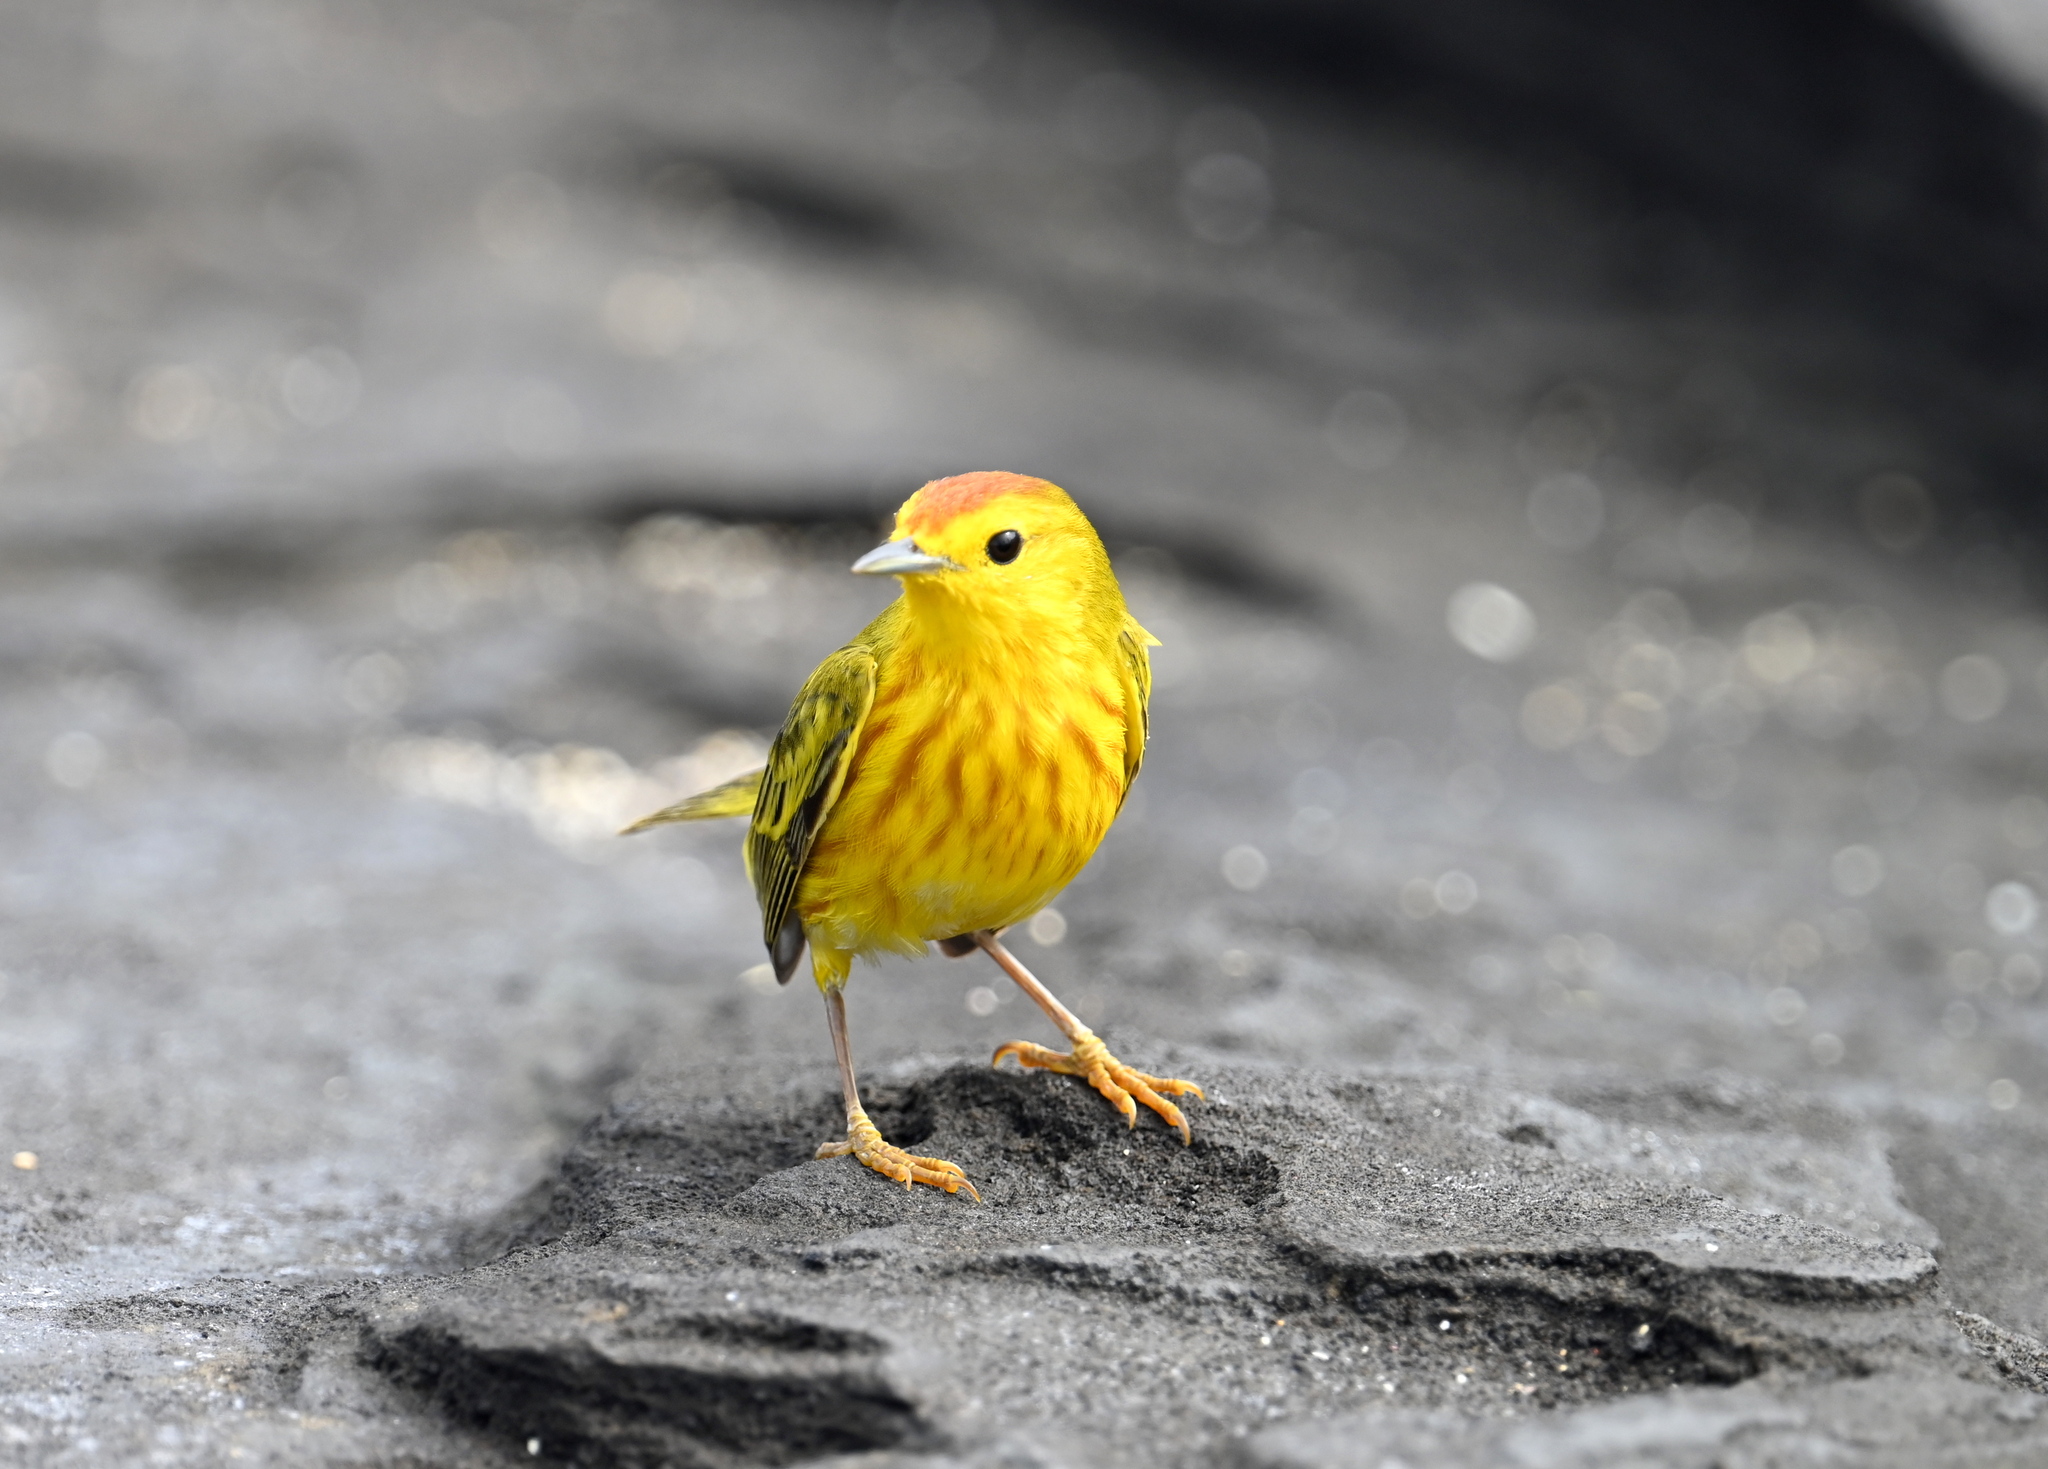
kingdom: Animalia
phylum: Chordata
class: Aves
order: Passeriformes
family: Parulidae
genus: Setophaga
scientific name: Setophaga petechia
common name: Yellow warbler
